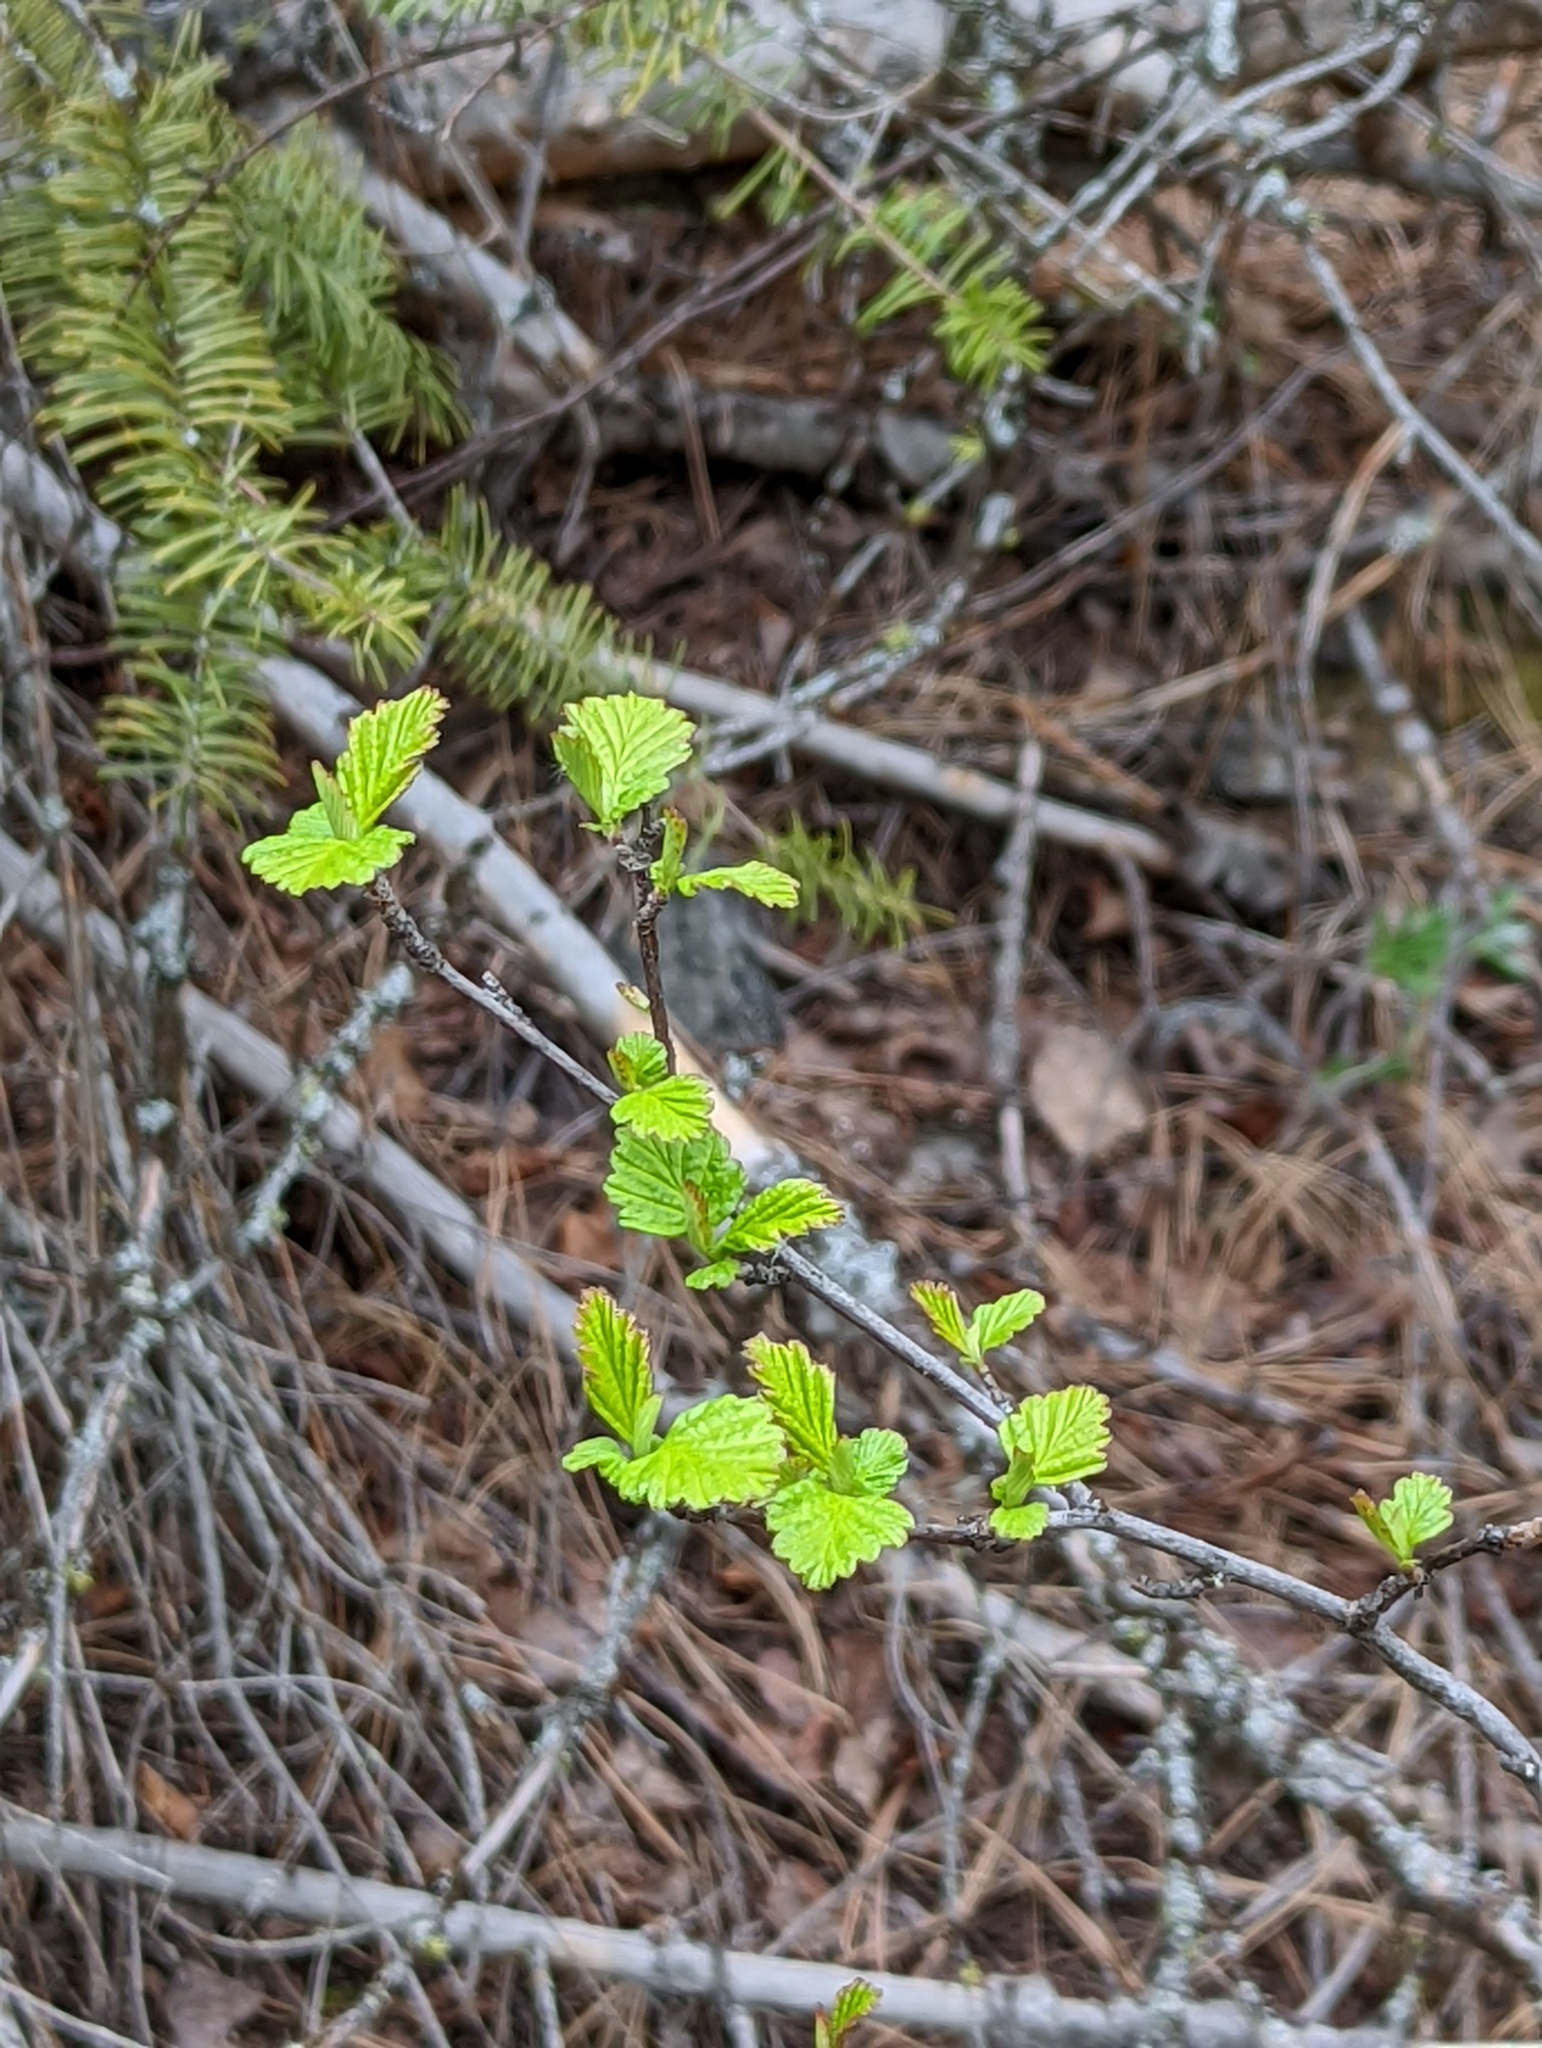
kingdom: Plantae
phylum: Tracheophyta
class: Magnoliopsida
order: Rosales
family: Rosaceae
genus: Holodiscus
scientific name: Holodiscus discolor
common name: Oceanspray
